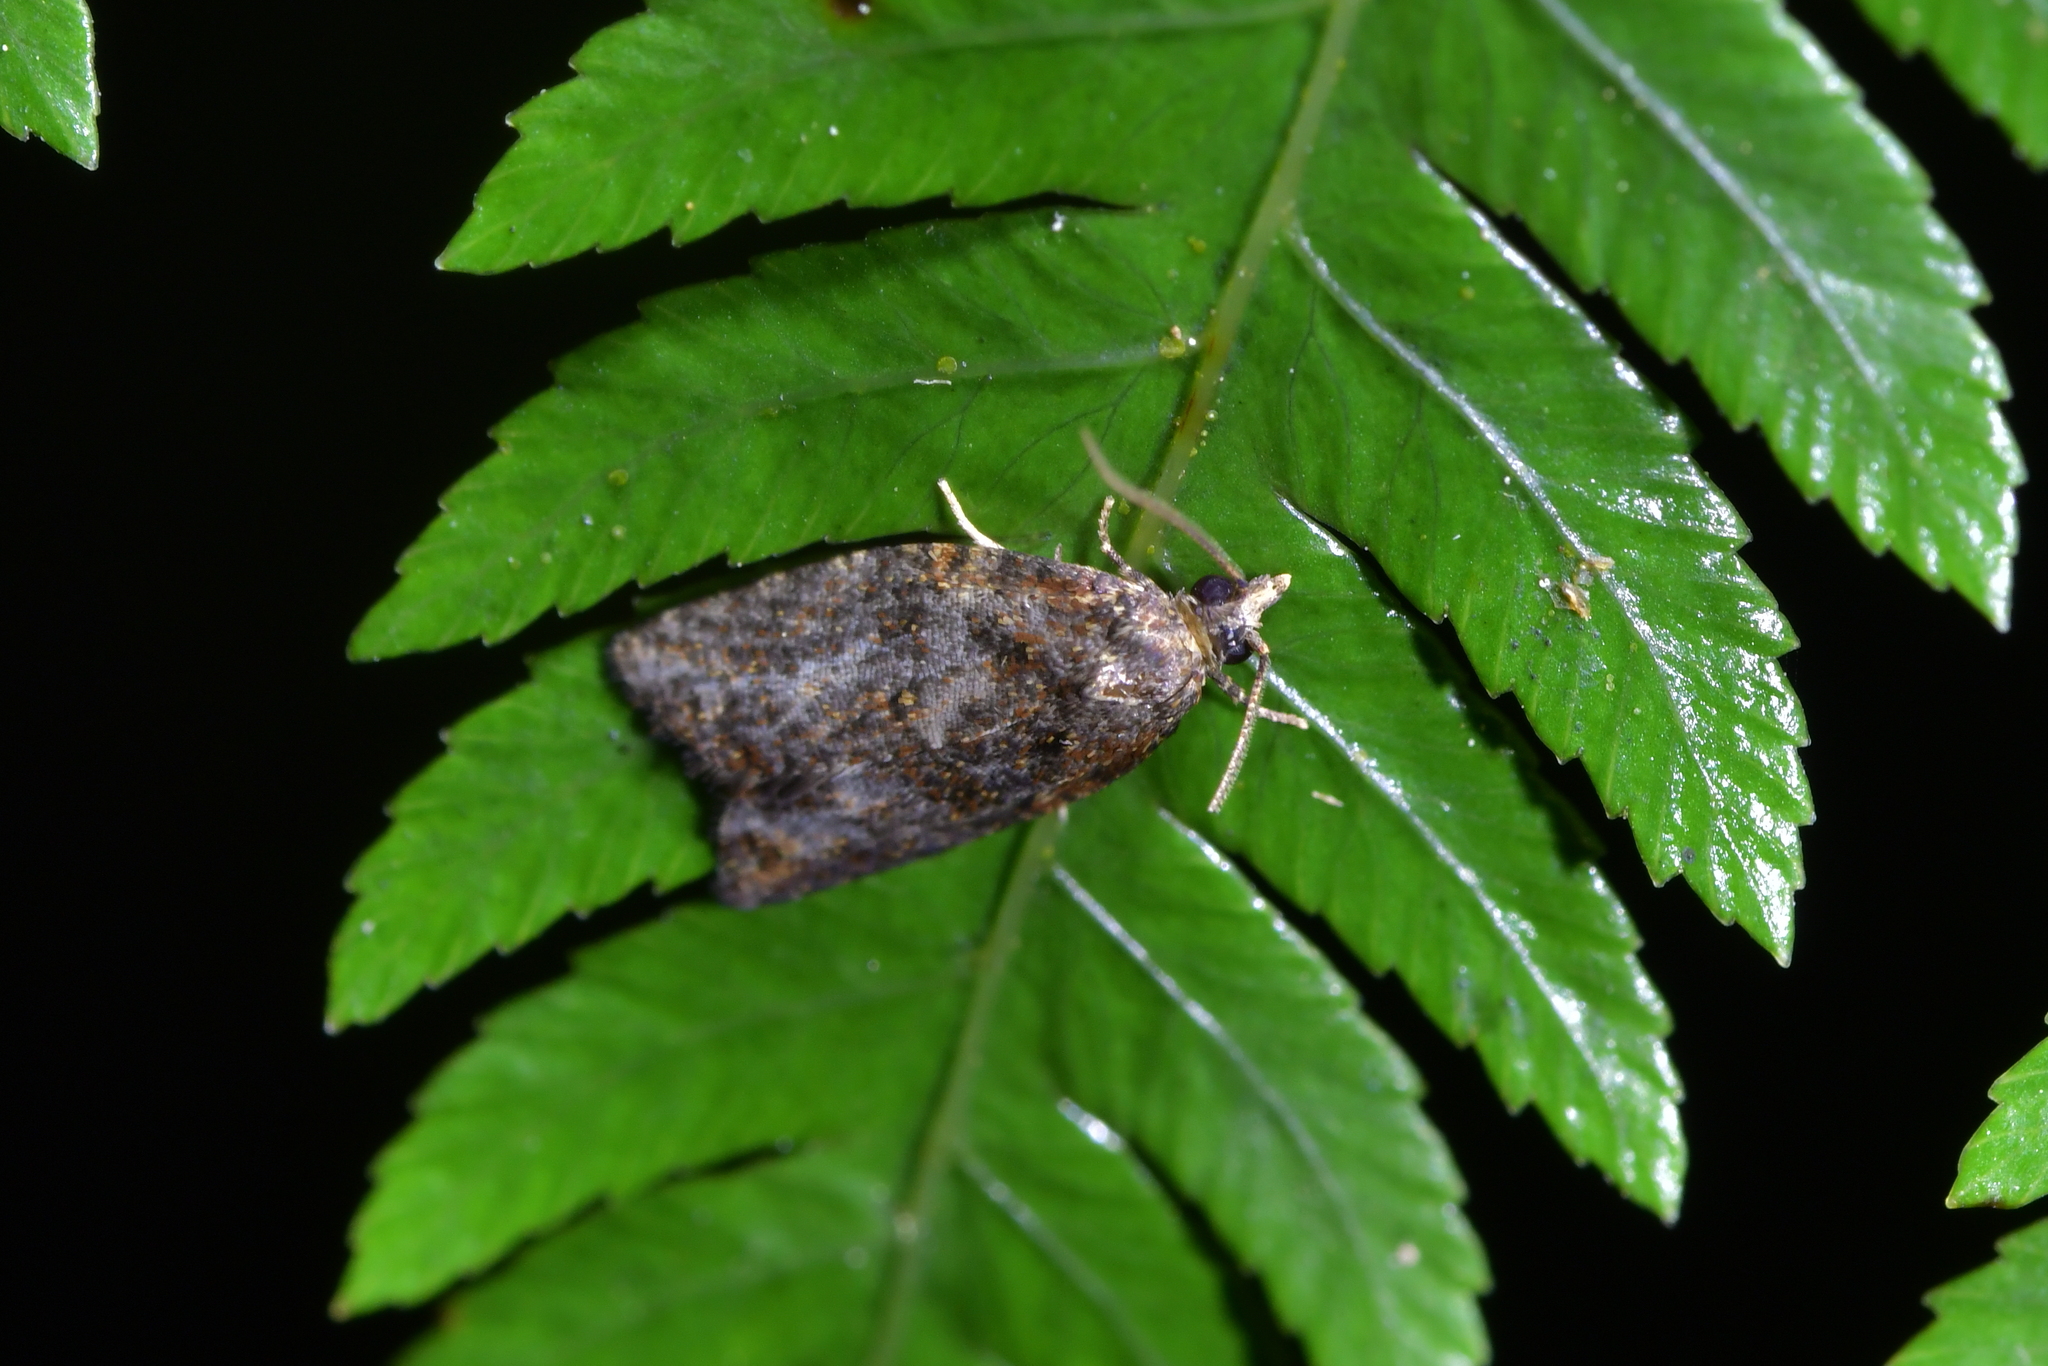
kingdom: Animalia
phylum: Arthropoda
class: Insecta
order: Lepidoptera
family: Tortricidae
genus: Capua
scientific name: Capua intractana
